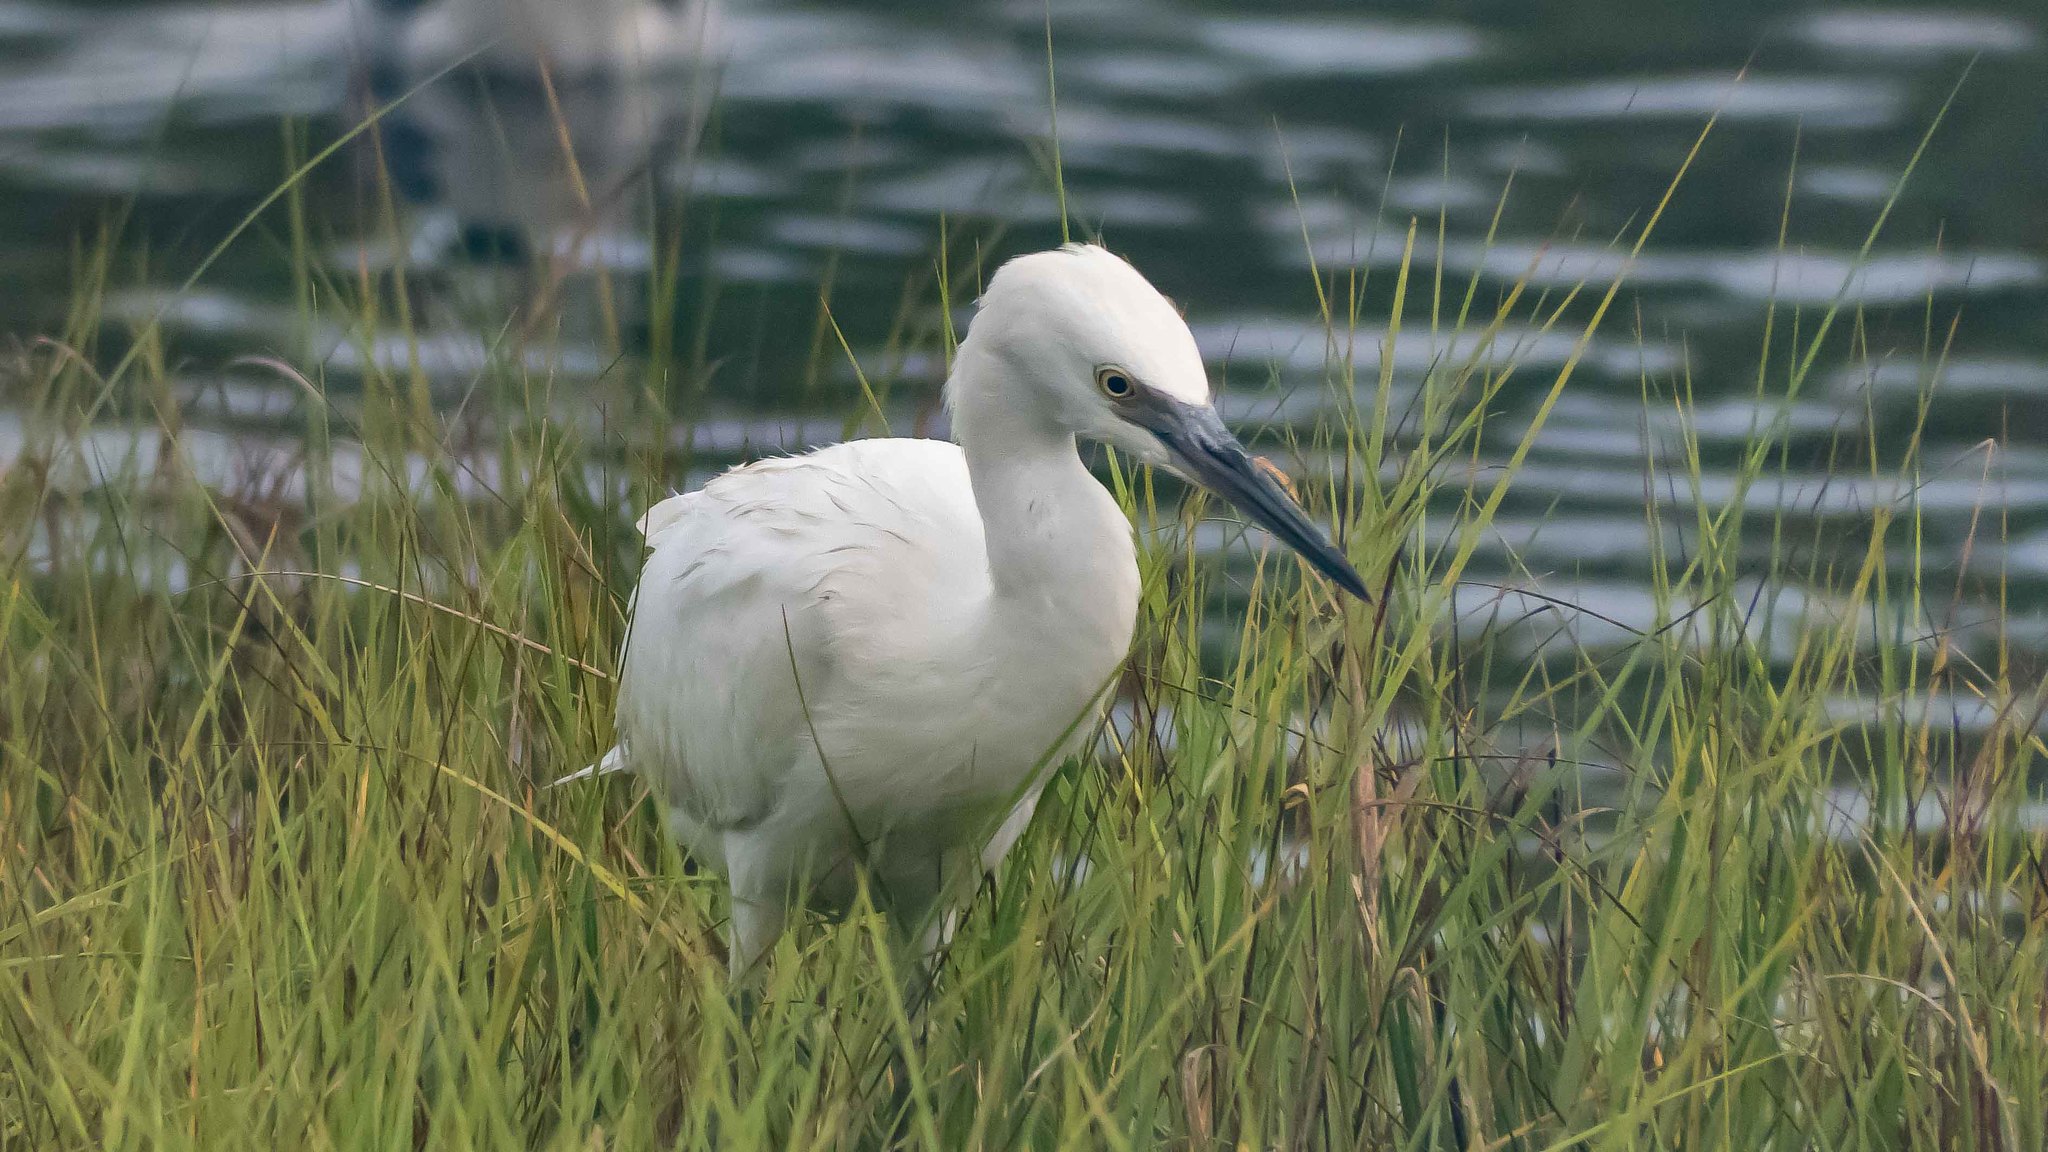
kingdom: Animalia
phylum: Chordata
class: Aves
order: Pelecaniformes
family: Ardeidae
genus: Egretta
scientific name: Egretta caerulea
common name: Little blue heron
